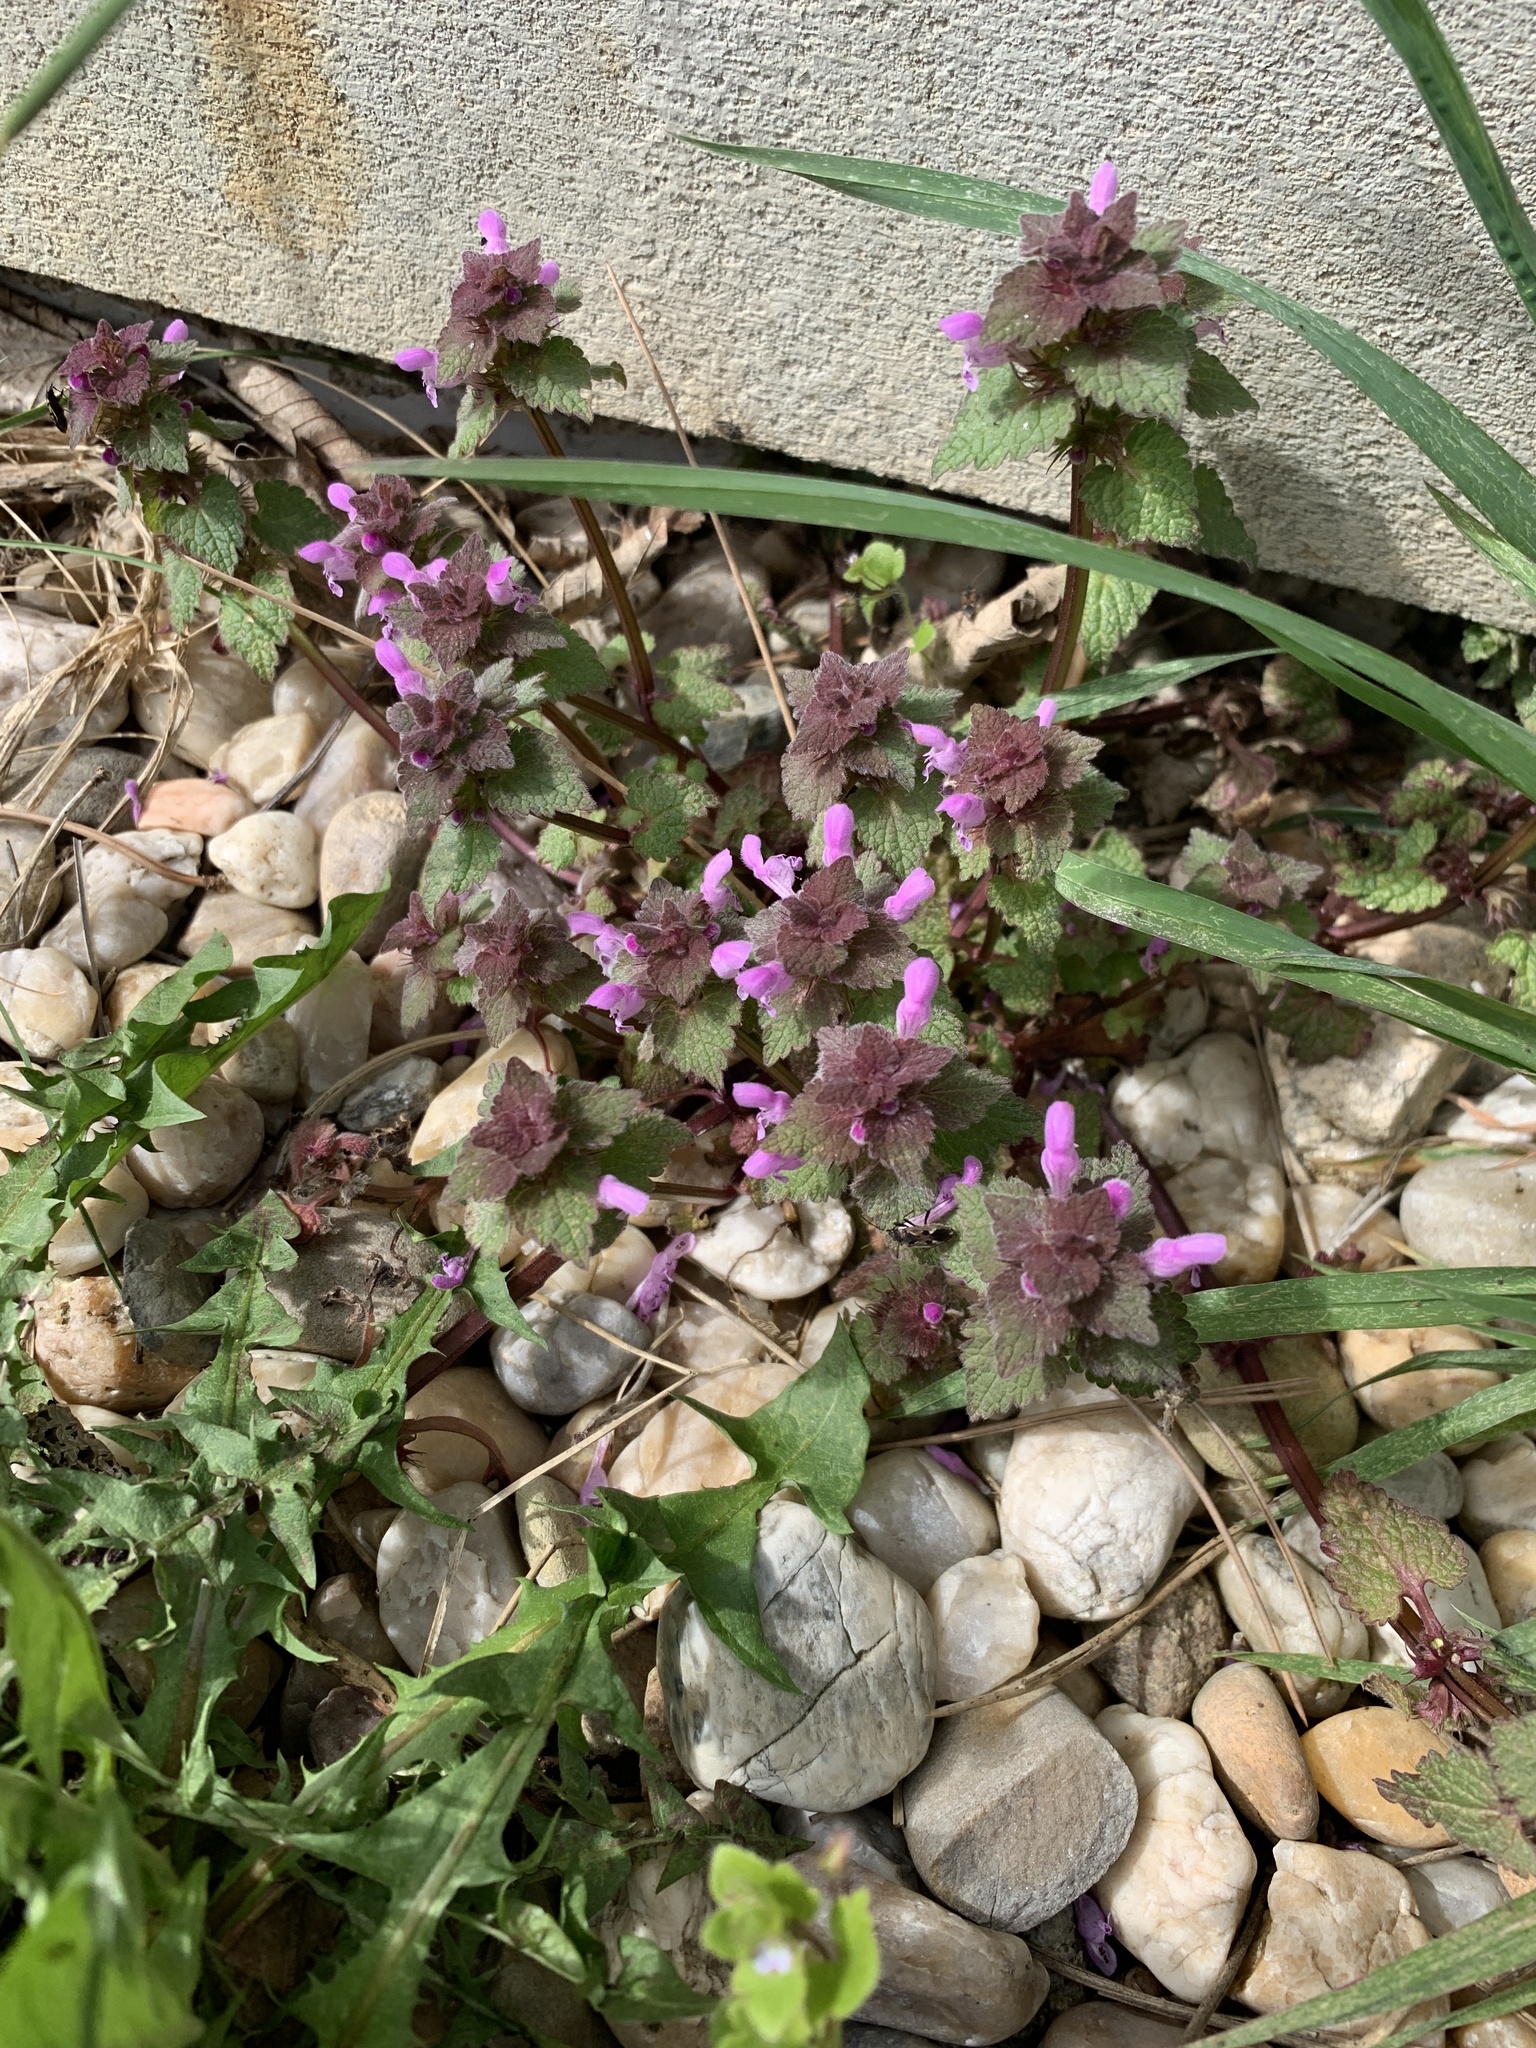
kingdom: Plantae
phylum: Tracheophyta
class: Magnoliopsida
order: Lamiales
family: Lamiaceae
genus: Lamium
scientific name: Lamium purpureum
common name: Red dead-nettle
